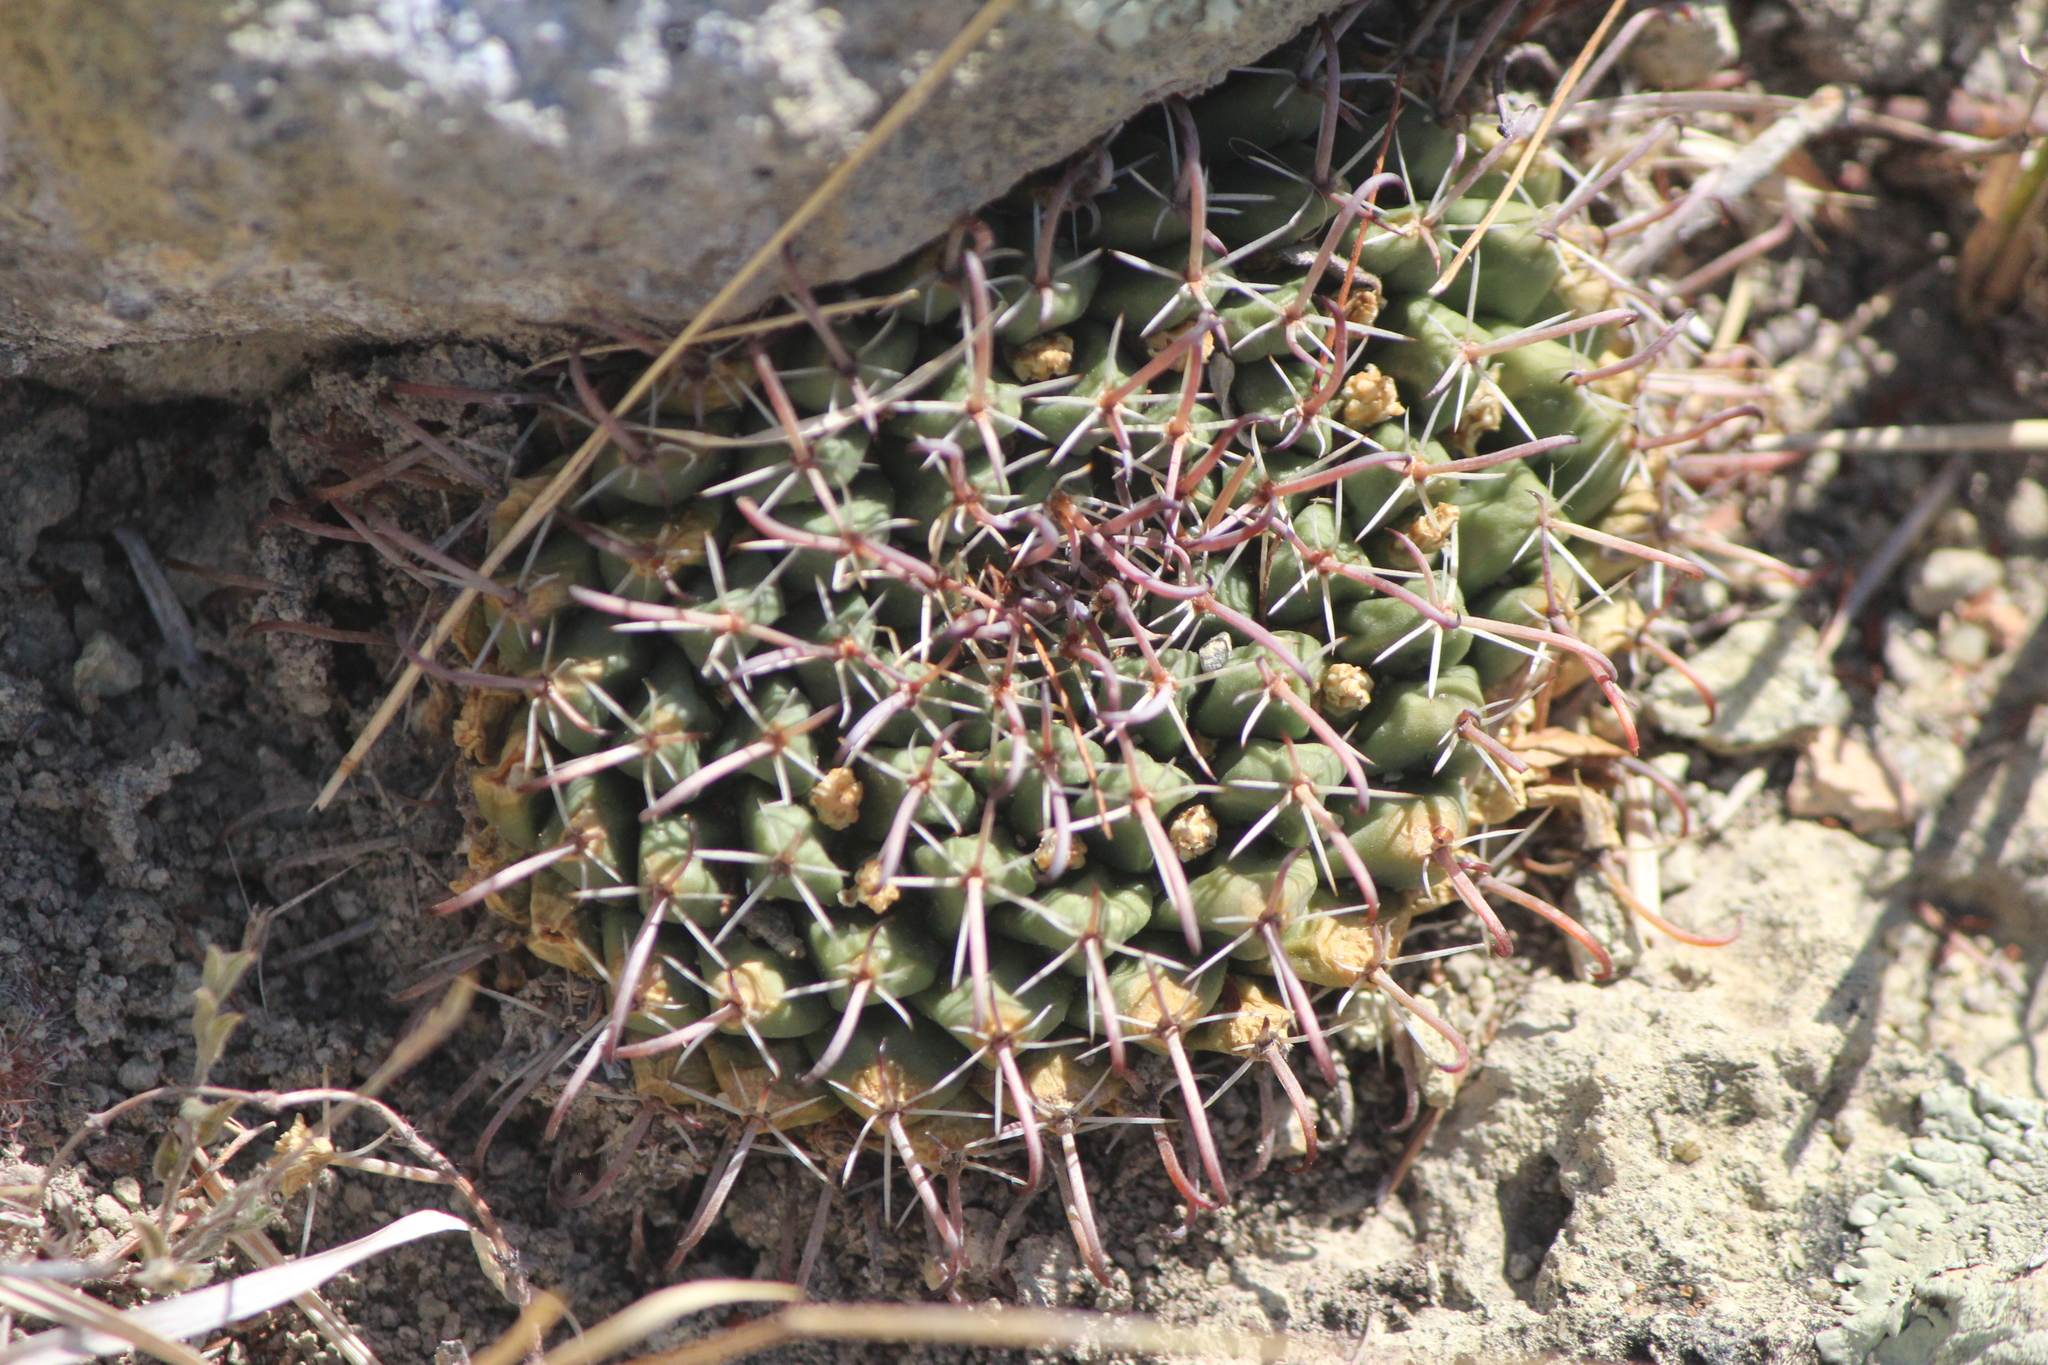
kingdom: Plantae
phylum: Tracheophyta
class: Magnoliopsida
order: Caryophyllales
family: Cactaceae
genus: Mammillaria
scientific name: Mammillaria uncinata
